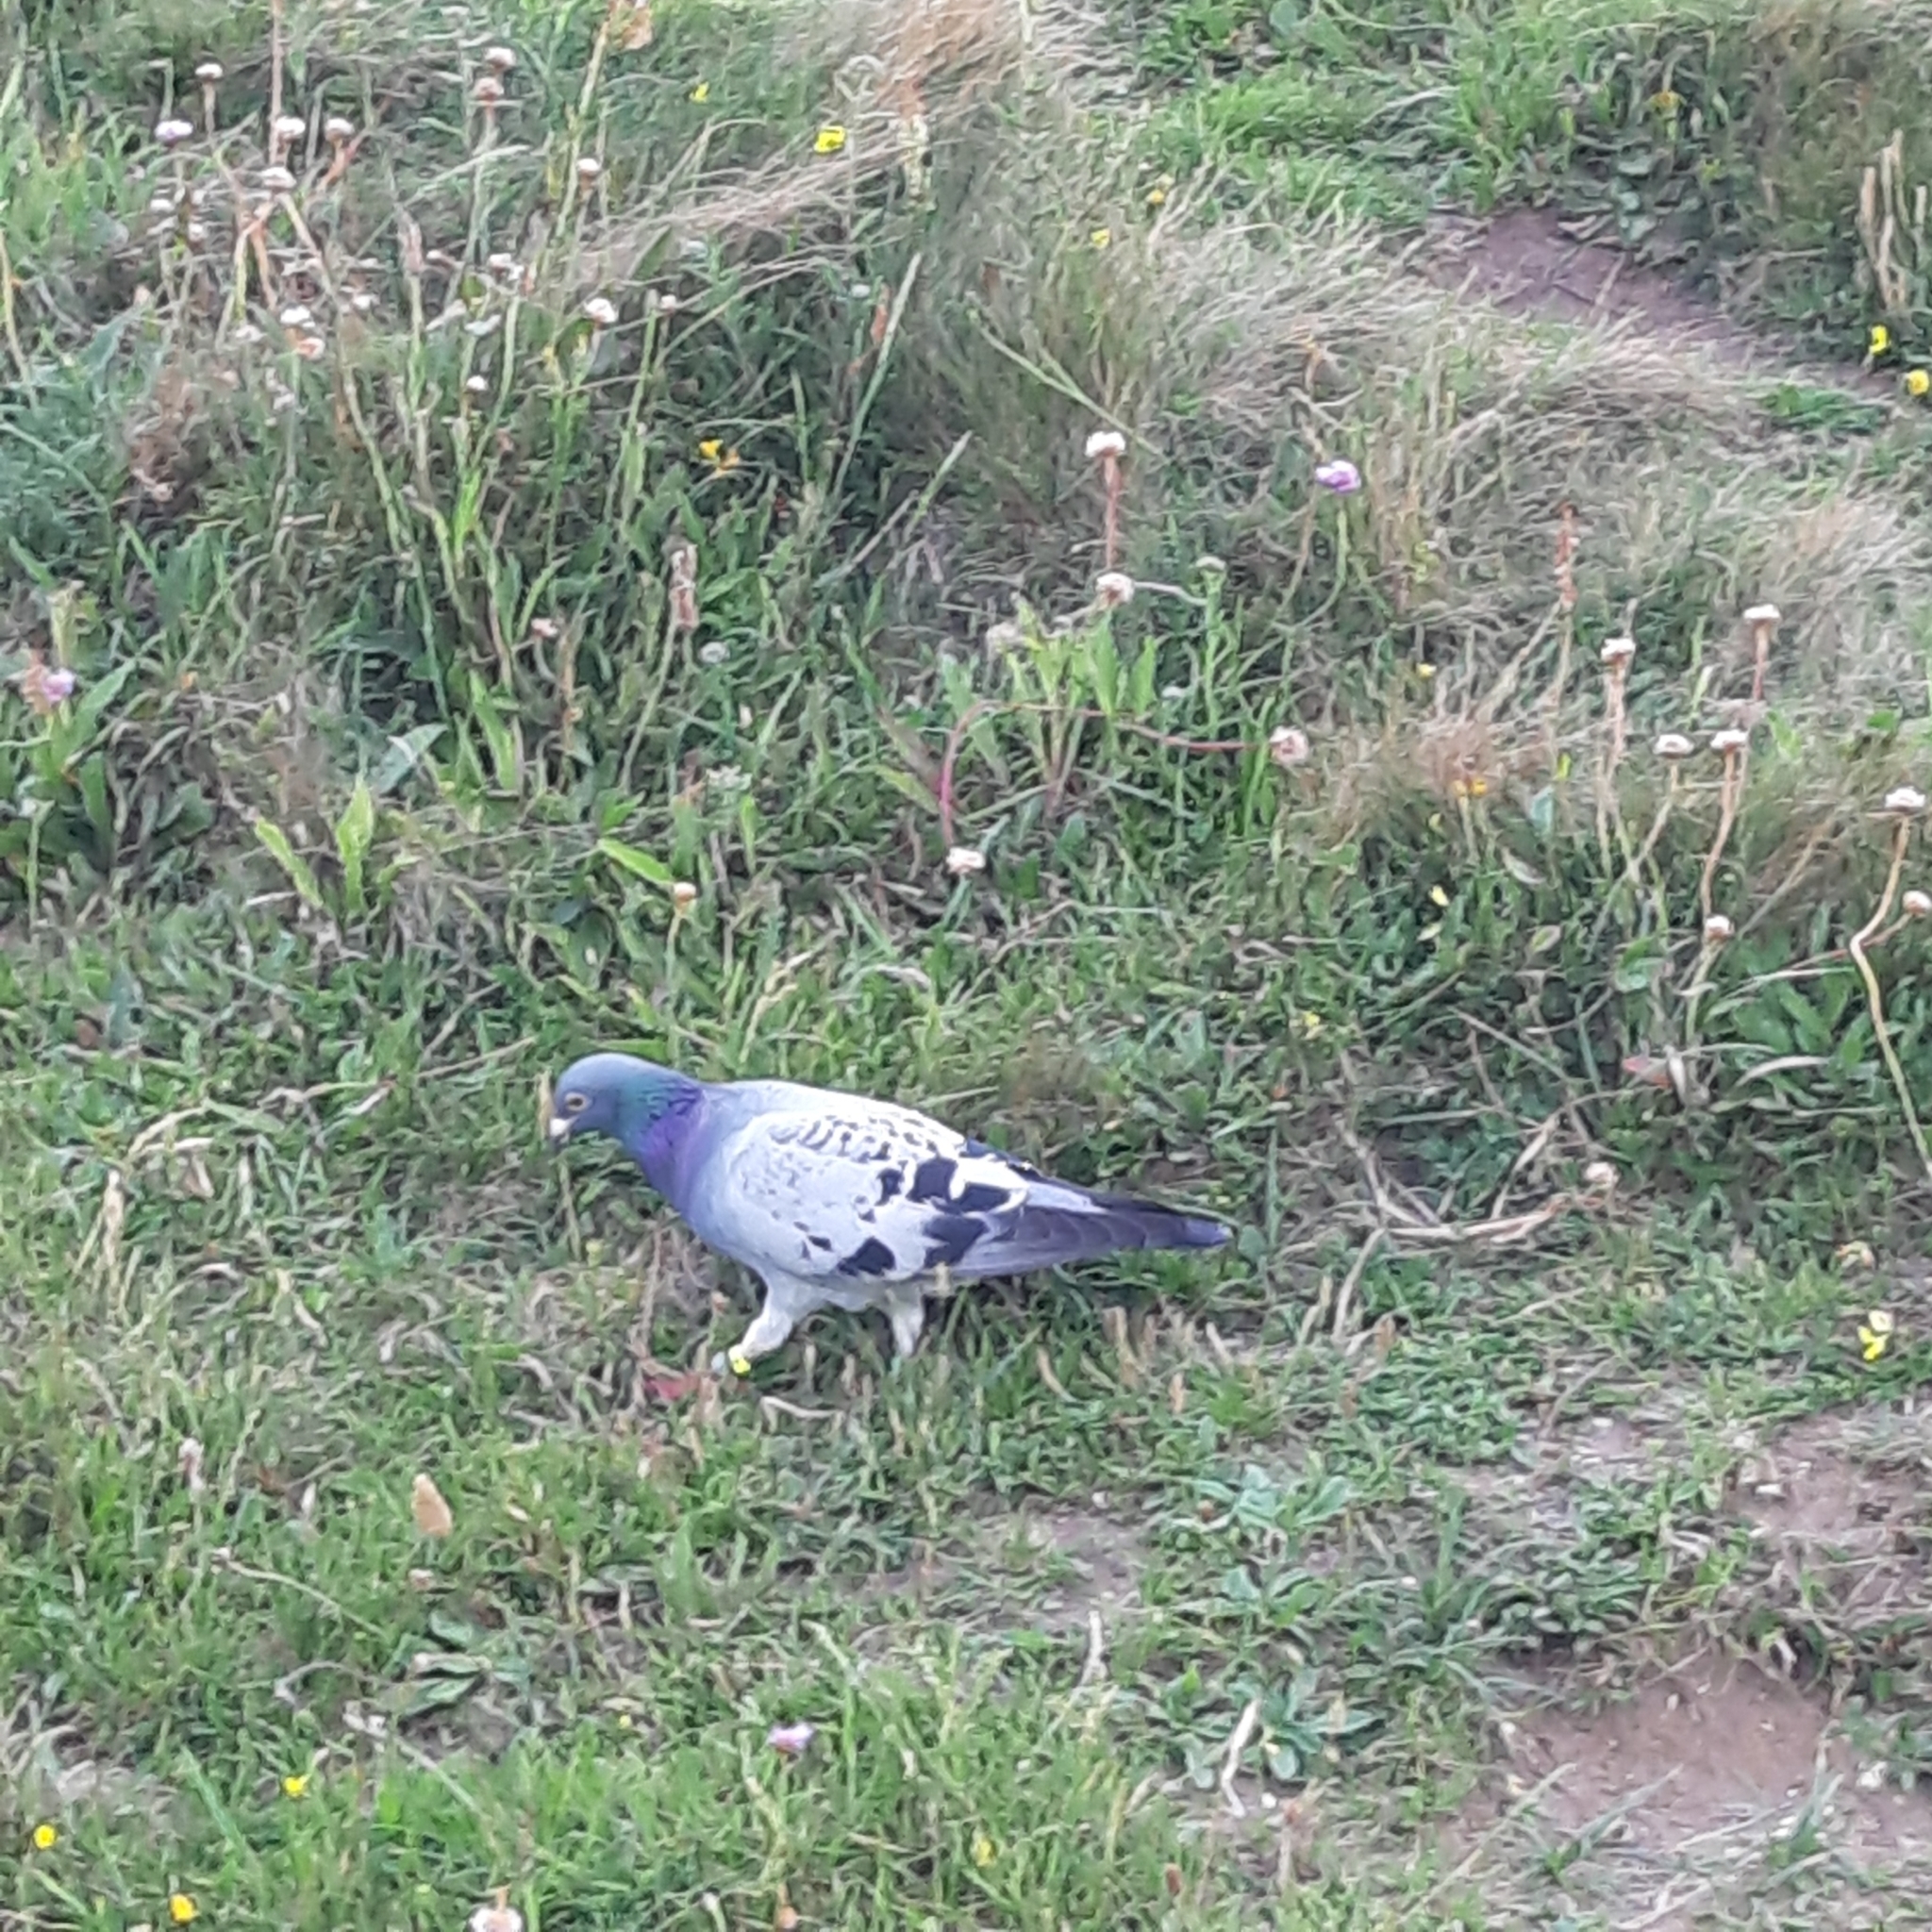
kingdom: Animalia
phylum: Chordata
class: Aves
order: Columbiformes
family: Columbidae
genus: Columba
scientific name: Columba livia
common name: Rock pigeon
